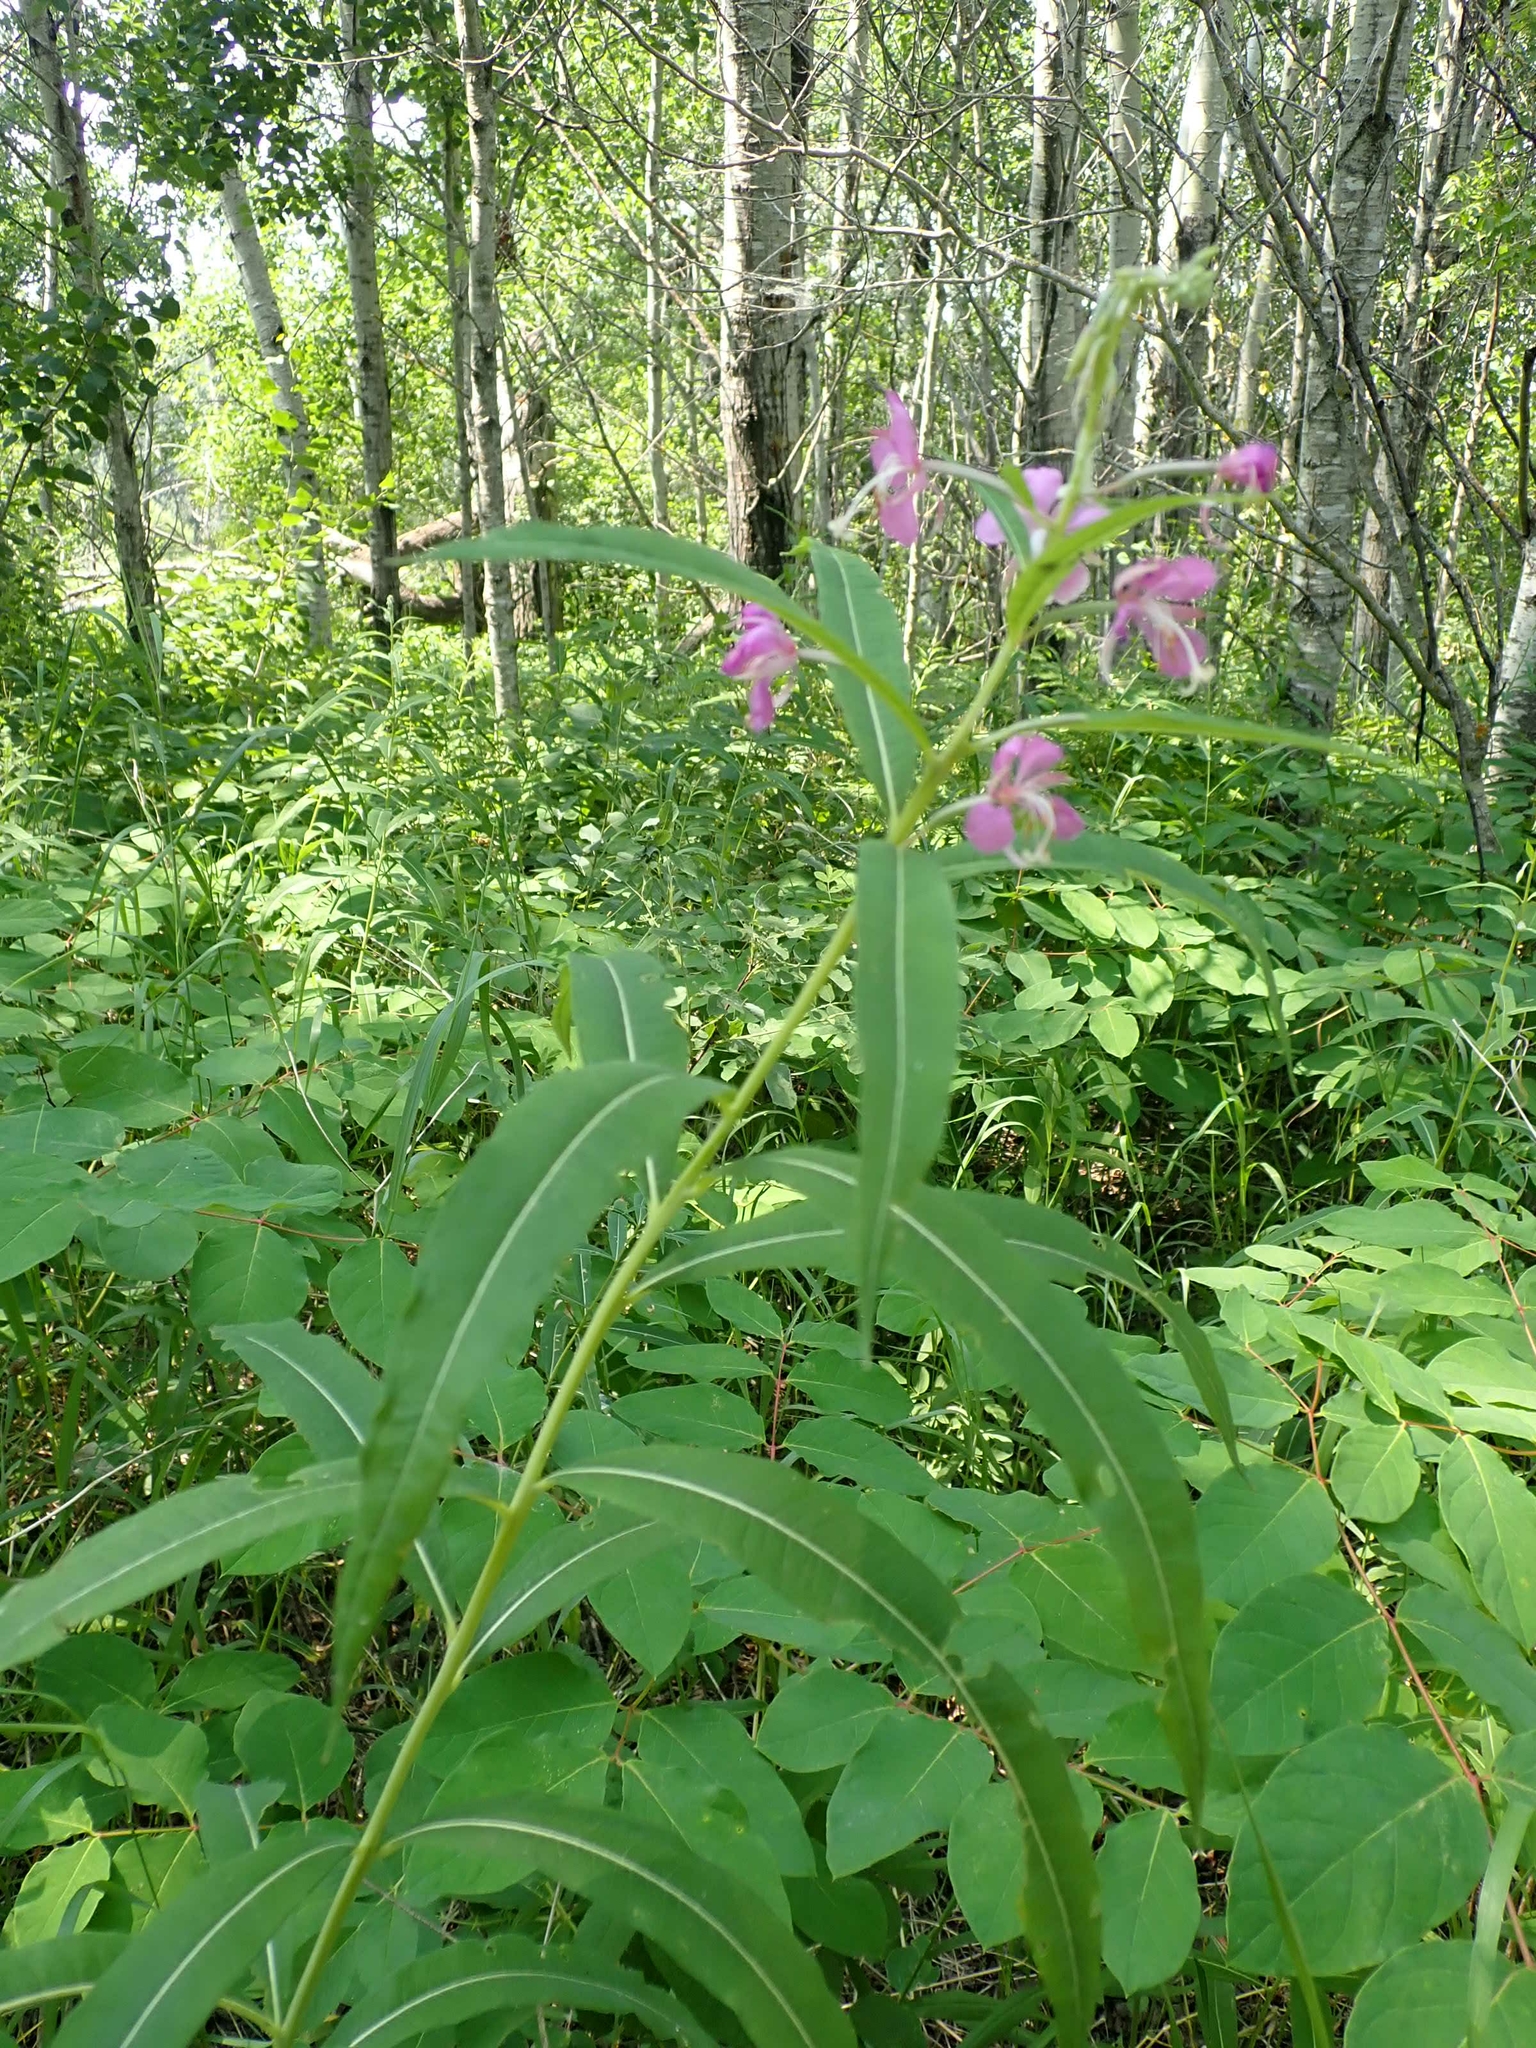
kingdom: Plantae
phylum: Tracheophyta
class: Magnoliopsida
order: Myrtales
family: Onagraceae
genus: Chamaenerion
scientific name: Chamaenerion angustifolium
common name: Fireweed
